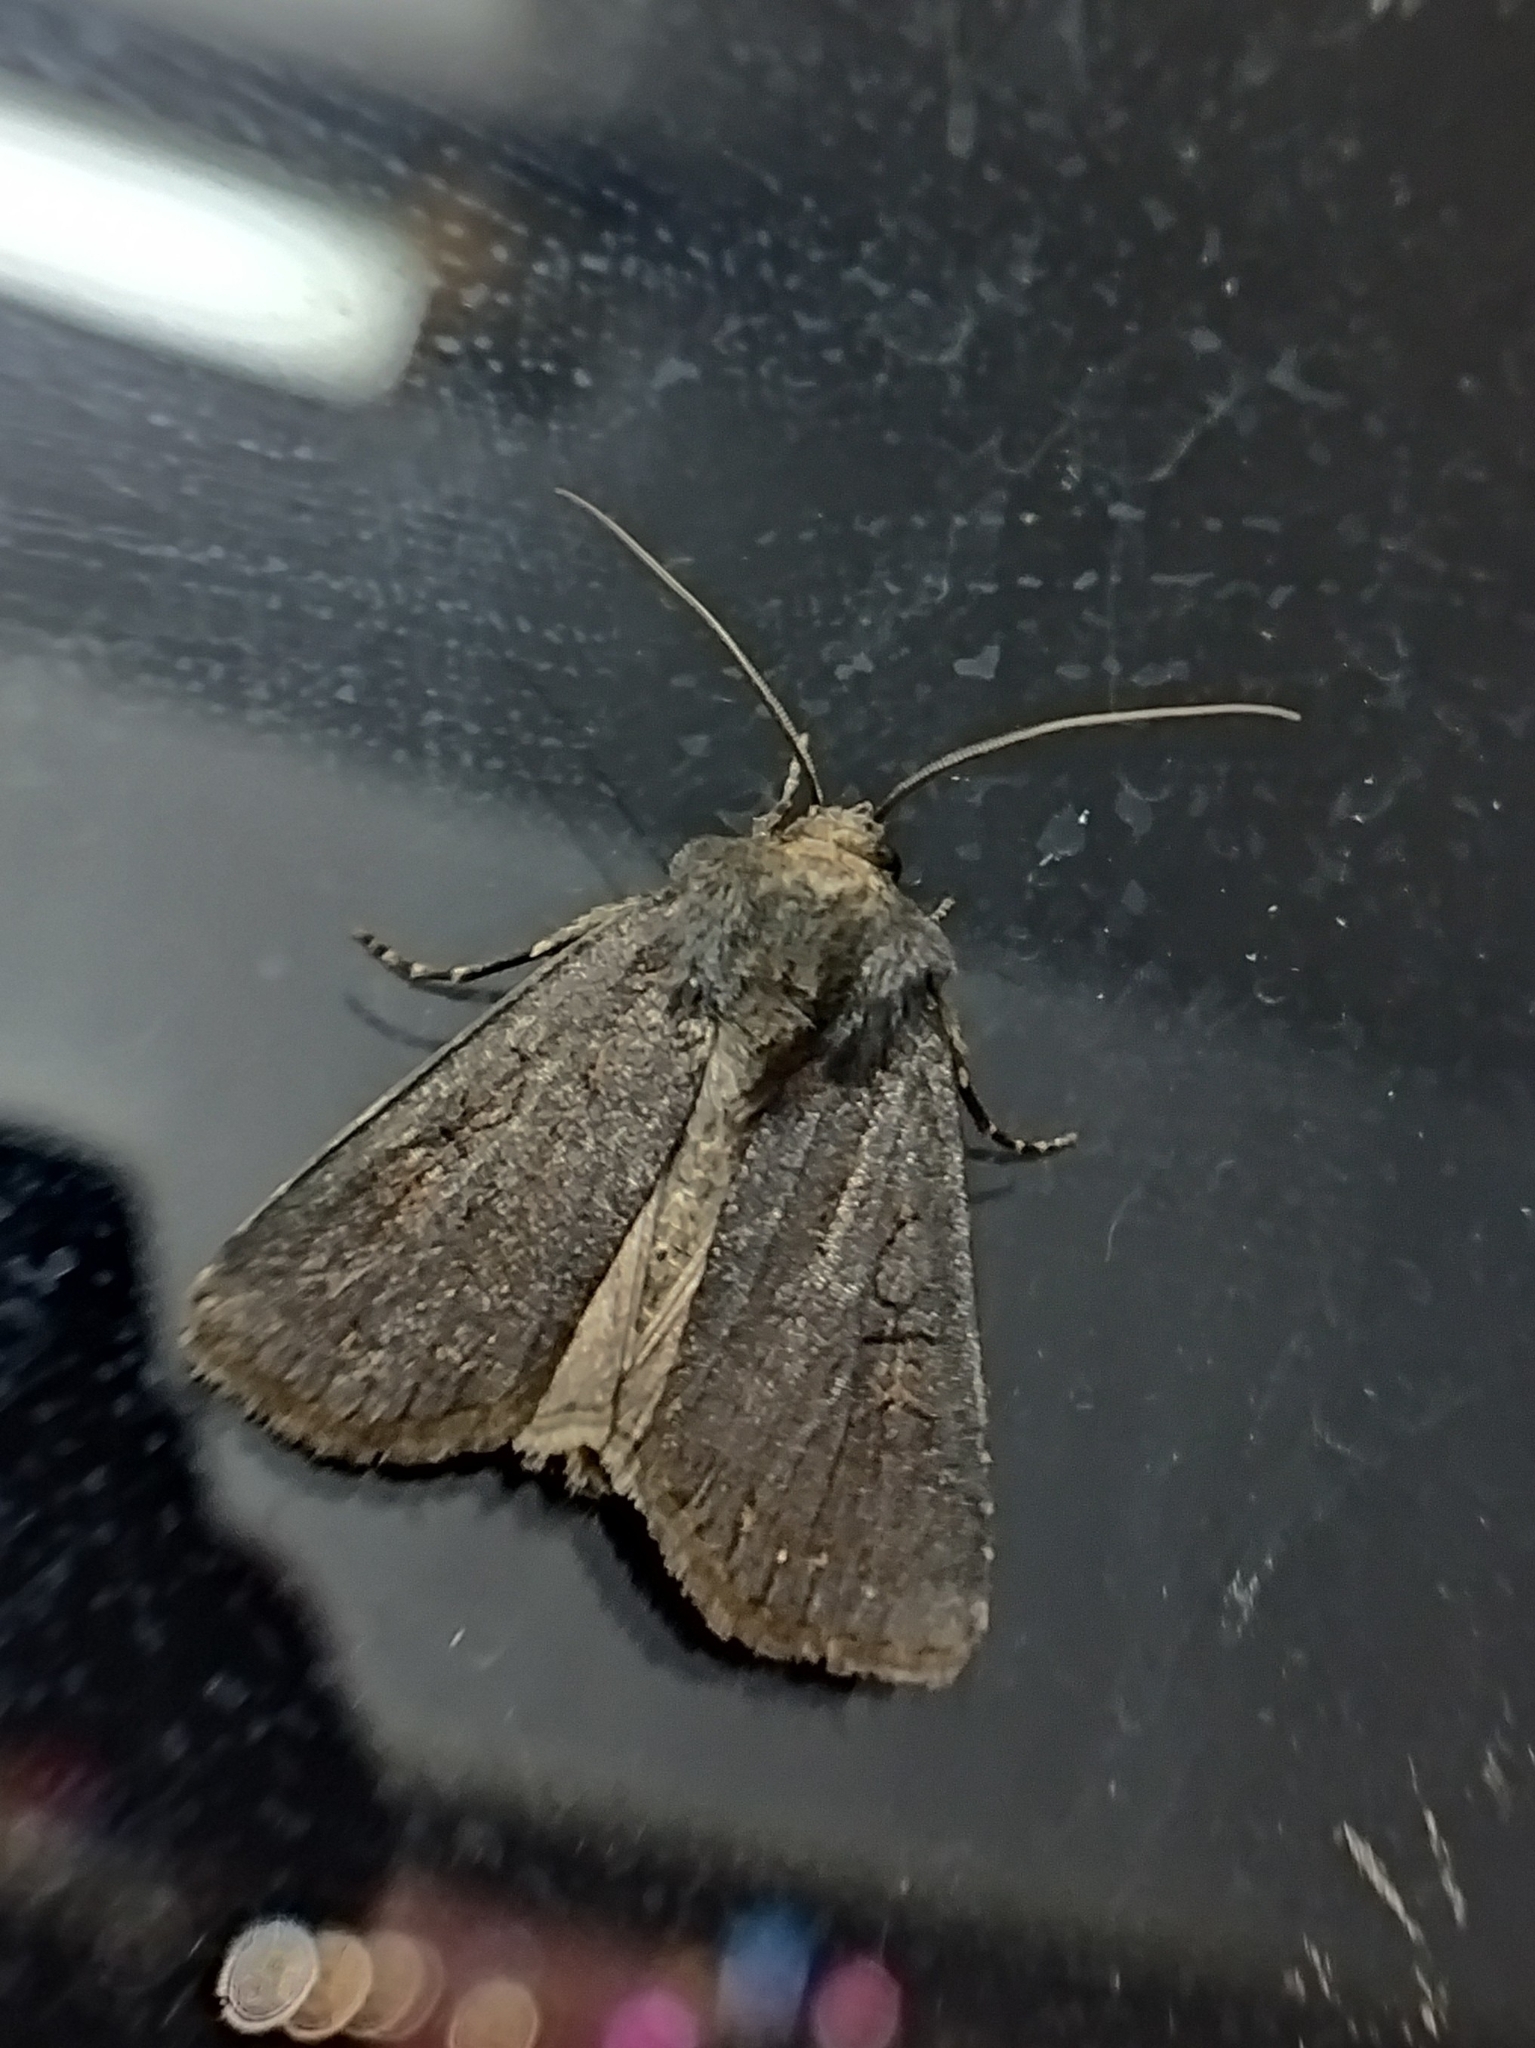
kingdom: Animalia
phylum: Arthropoda
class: Insecta
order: Lepidoptera
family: Noctuidae
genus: Euxoa
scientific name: Euxoa nigricans
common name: Garden dart
